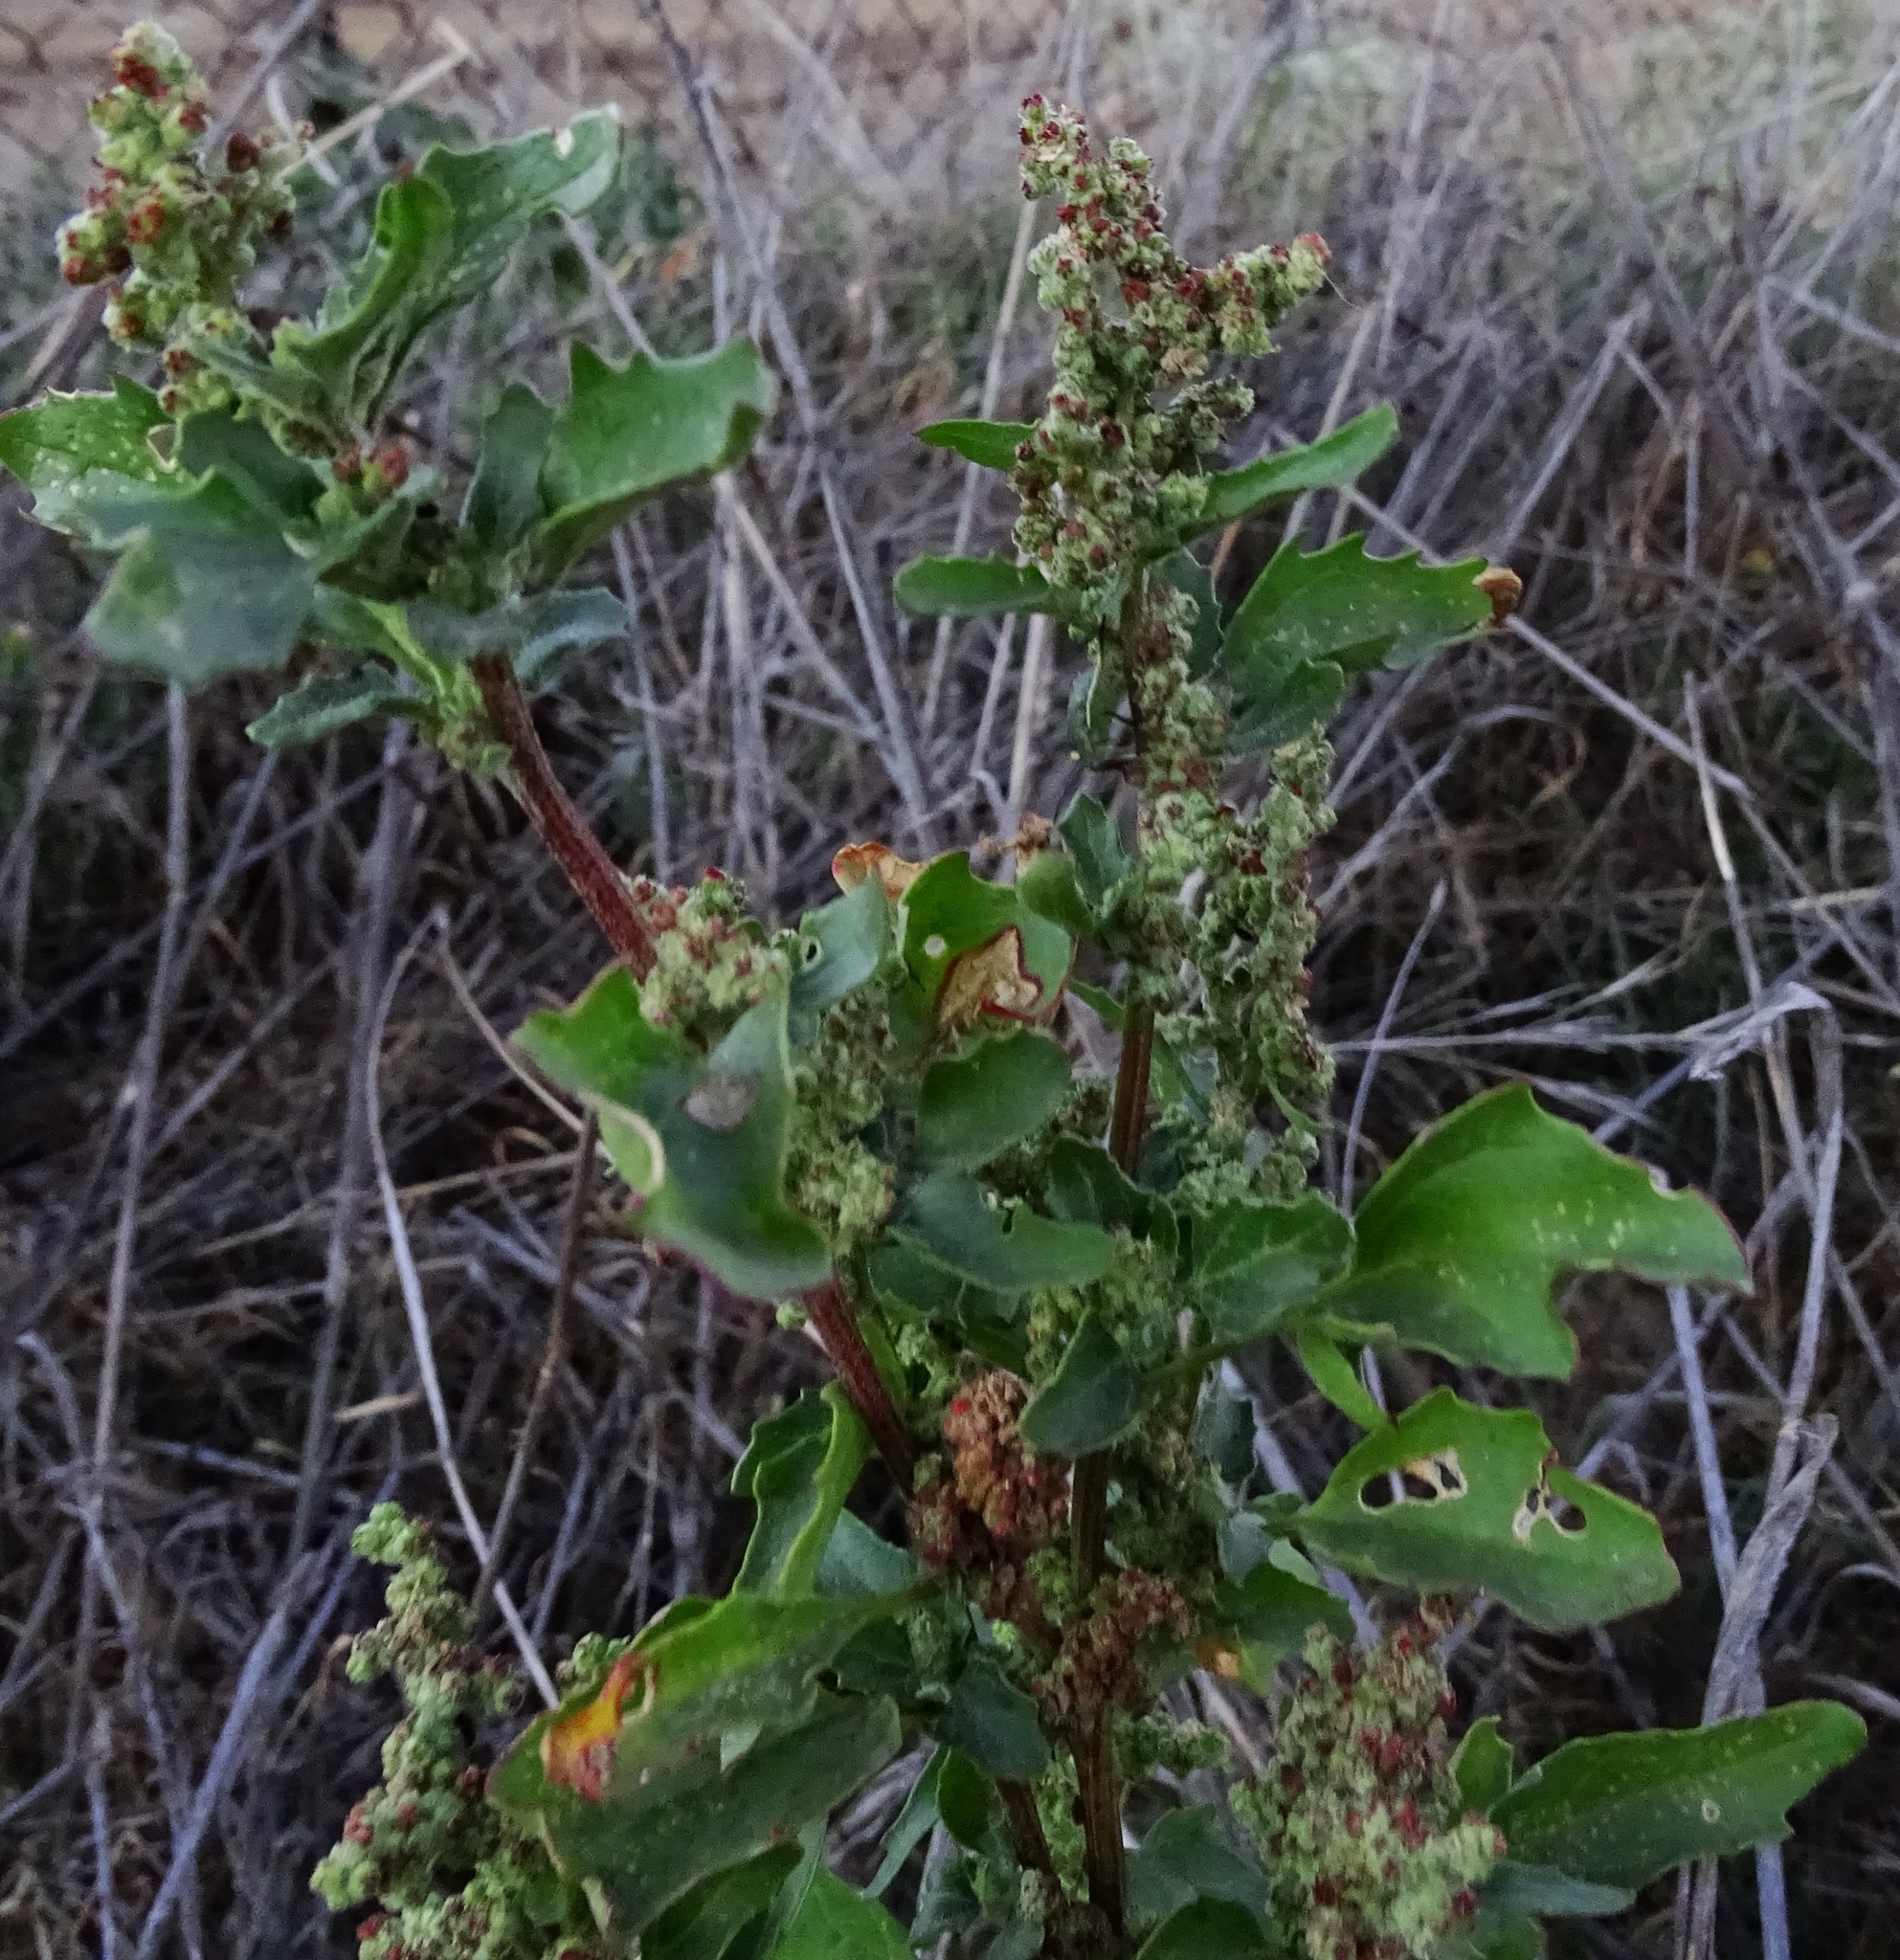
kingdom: Plantae
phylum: Tracheophyta
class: Magnoliopsida
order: Caryophyllales
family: Amaranthaceae
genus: Chenopodiastrum
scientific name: Chenopodiastrum murale
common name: Sowbane
